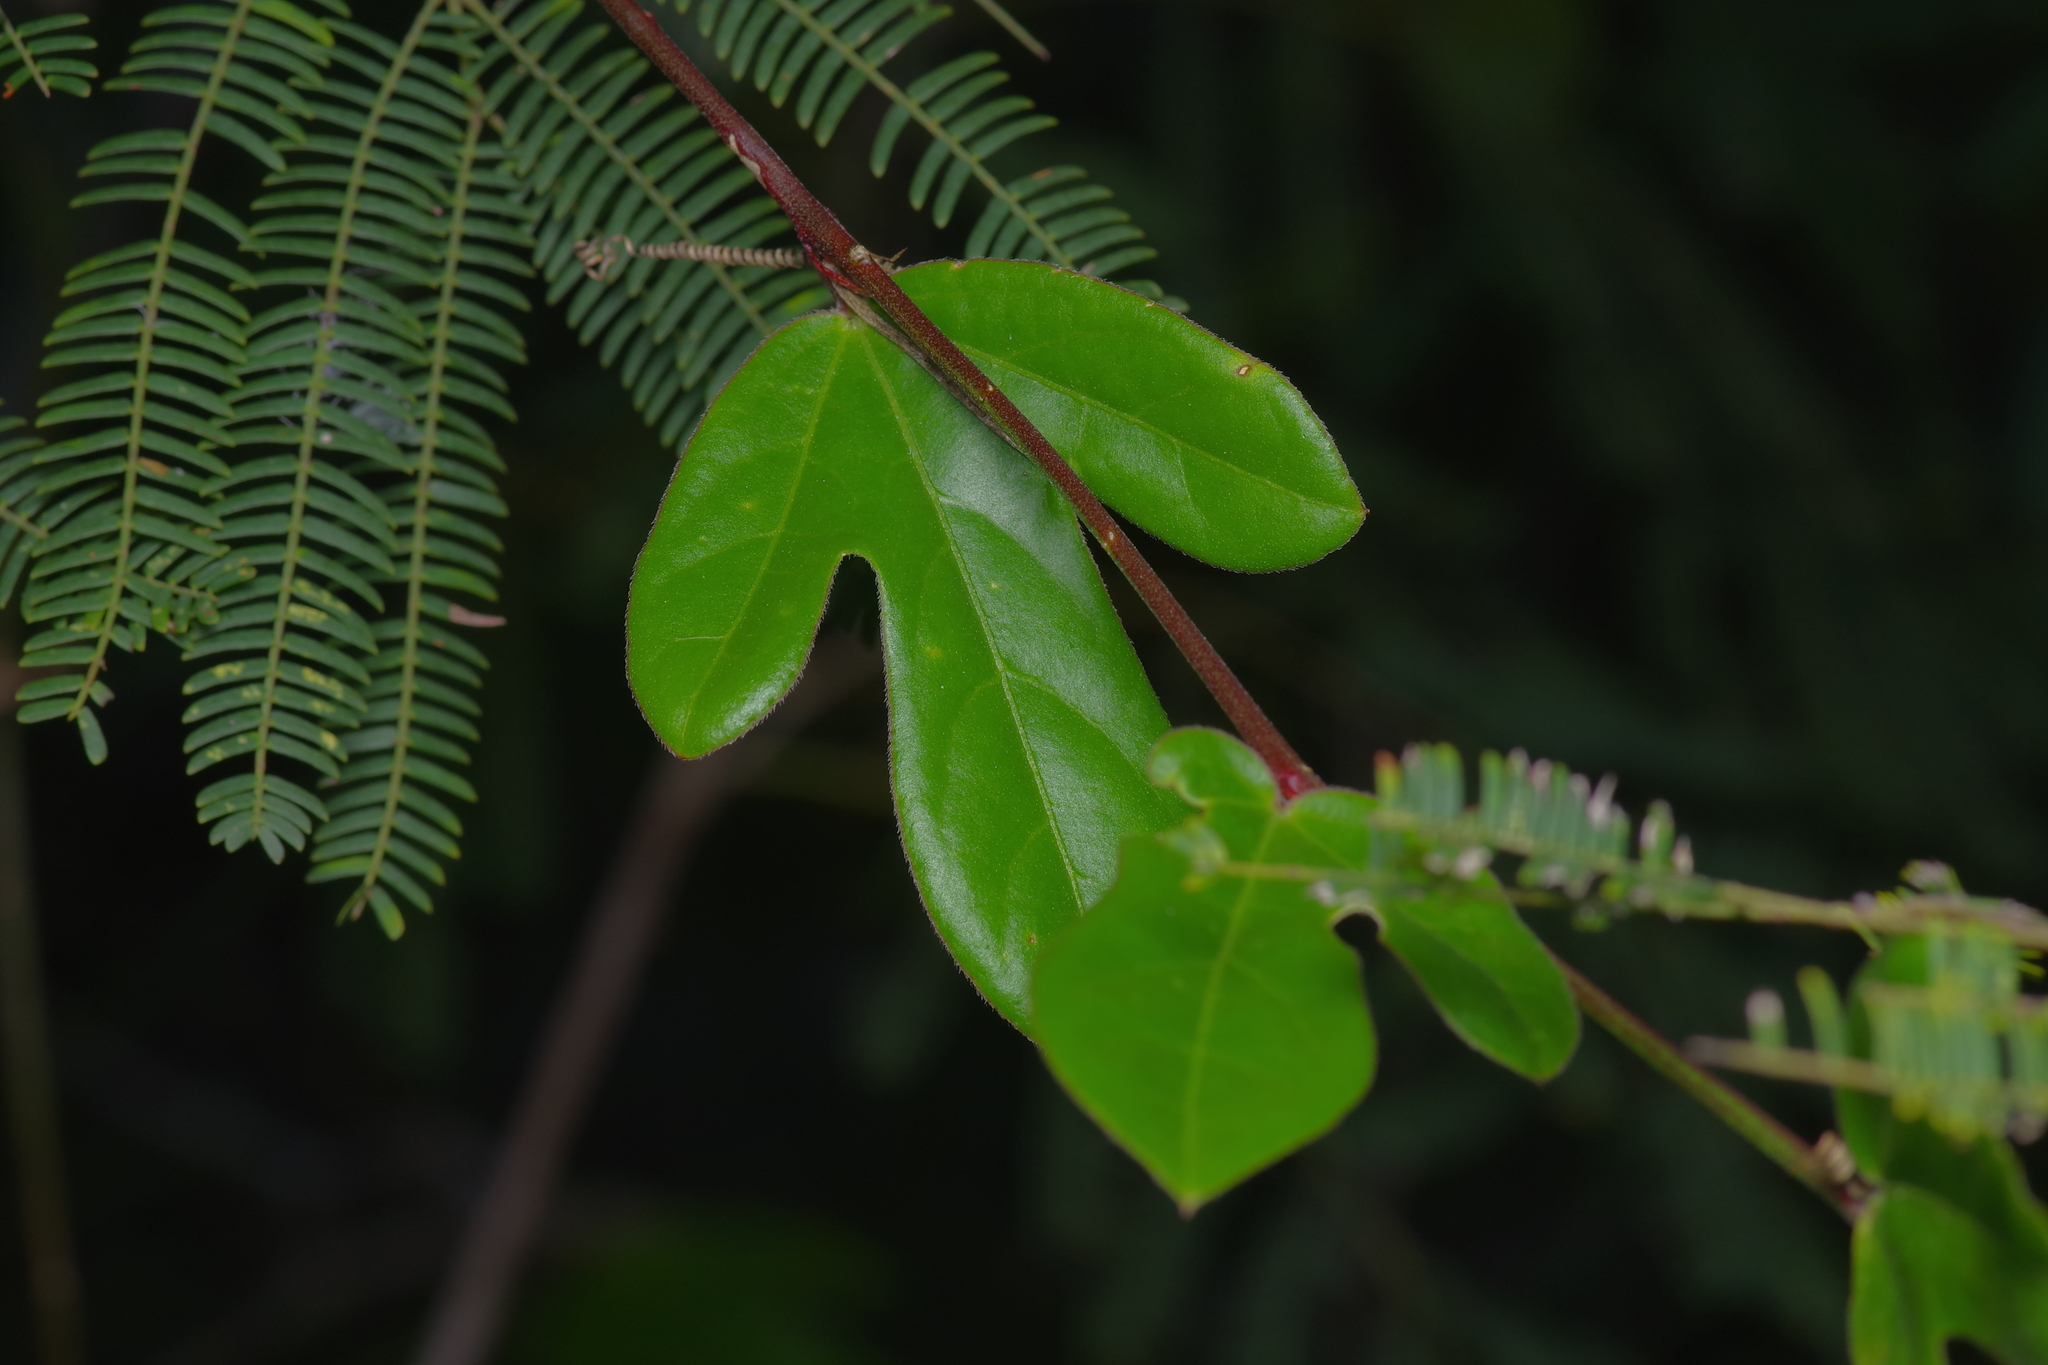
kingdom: Plantae
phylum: Tracheophyta
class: Magnoliopsida
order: Malpighiales
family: Passifloraceae
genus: Passiflora
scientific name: Passiflora pallida
